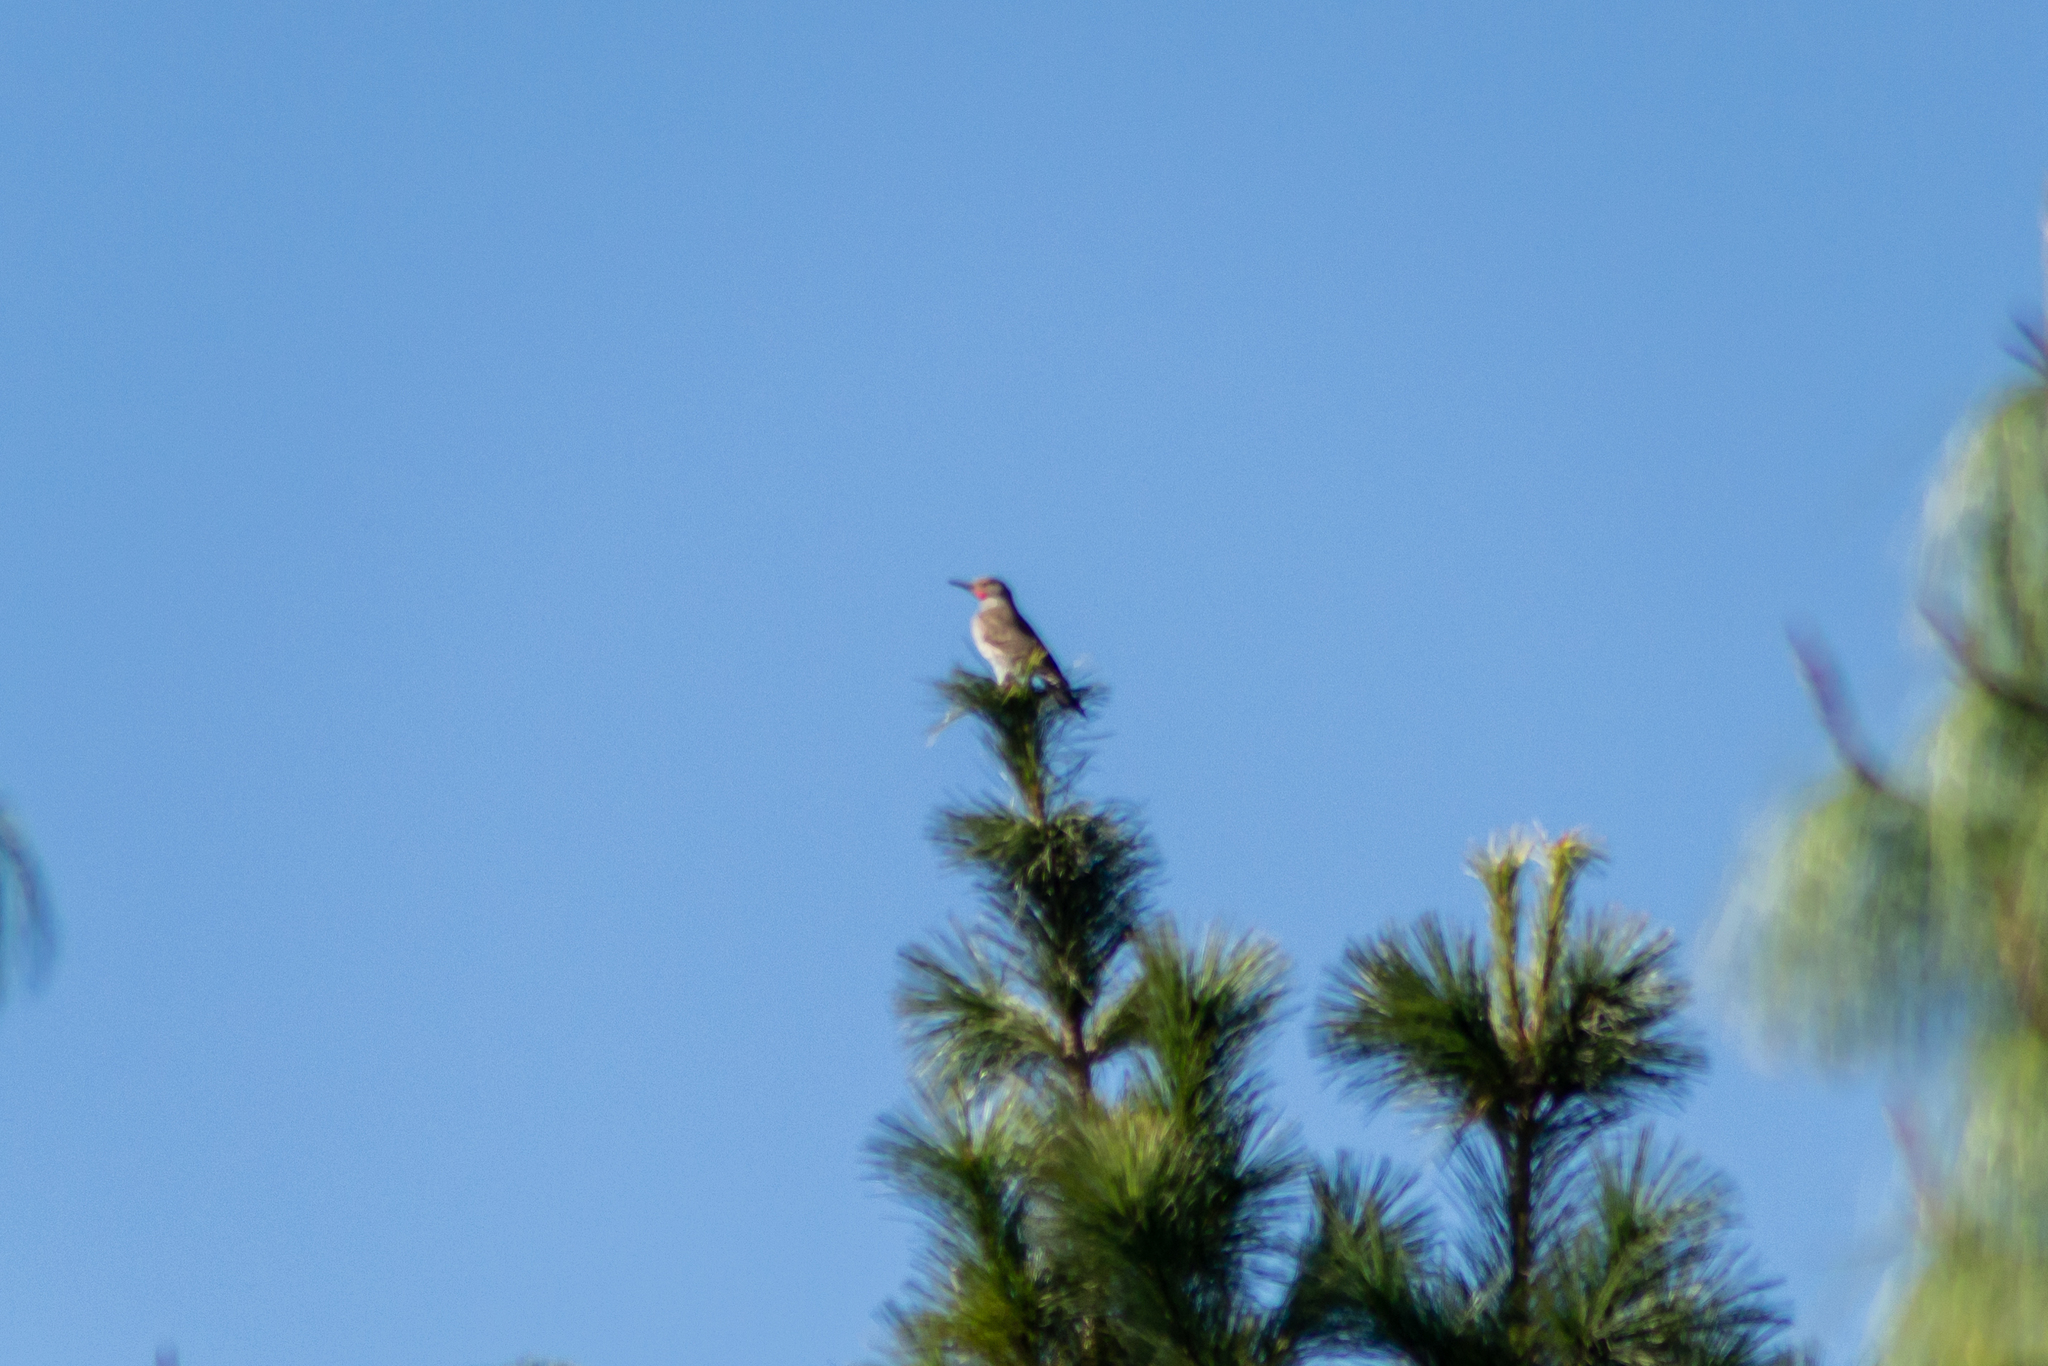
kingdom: Animalia
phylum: Chordata
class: Aves
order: Piciformes
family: Picidae
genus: Colaptes
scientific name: Colaptes auratus
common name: Northern flicker
